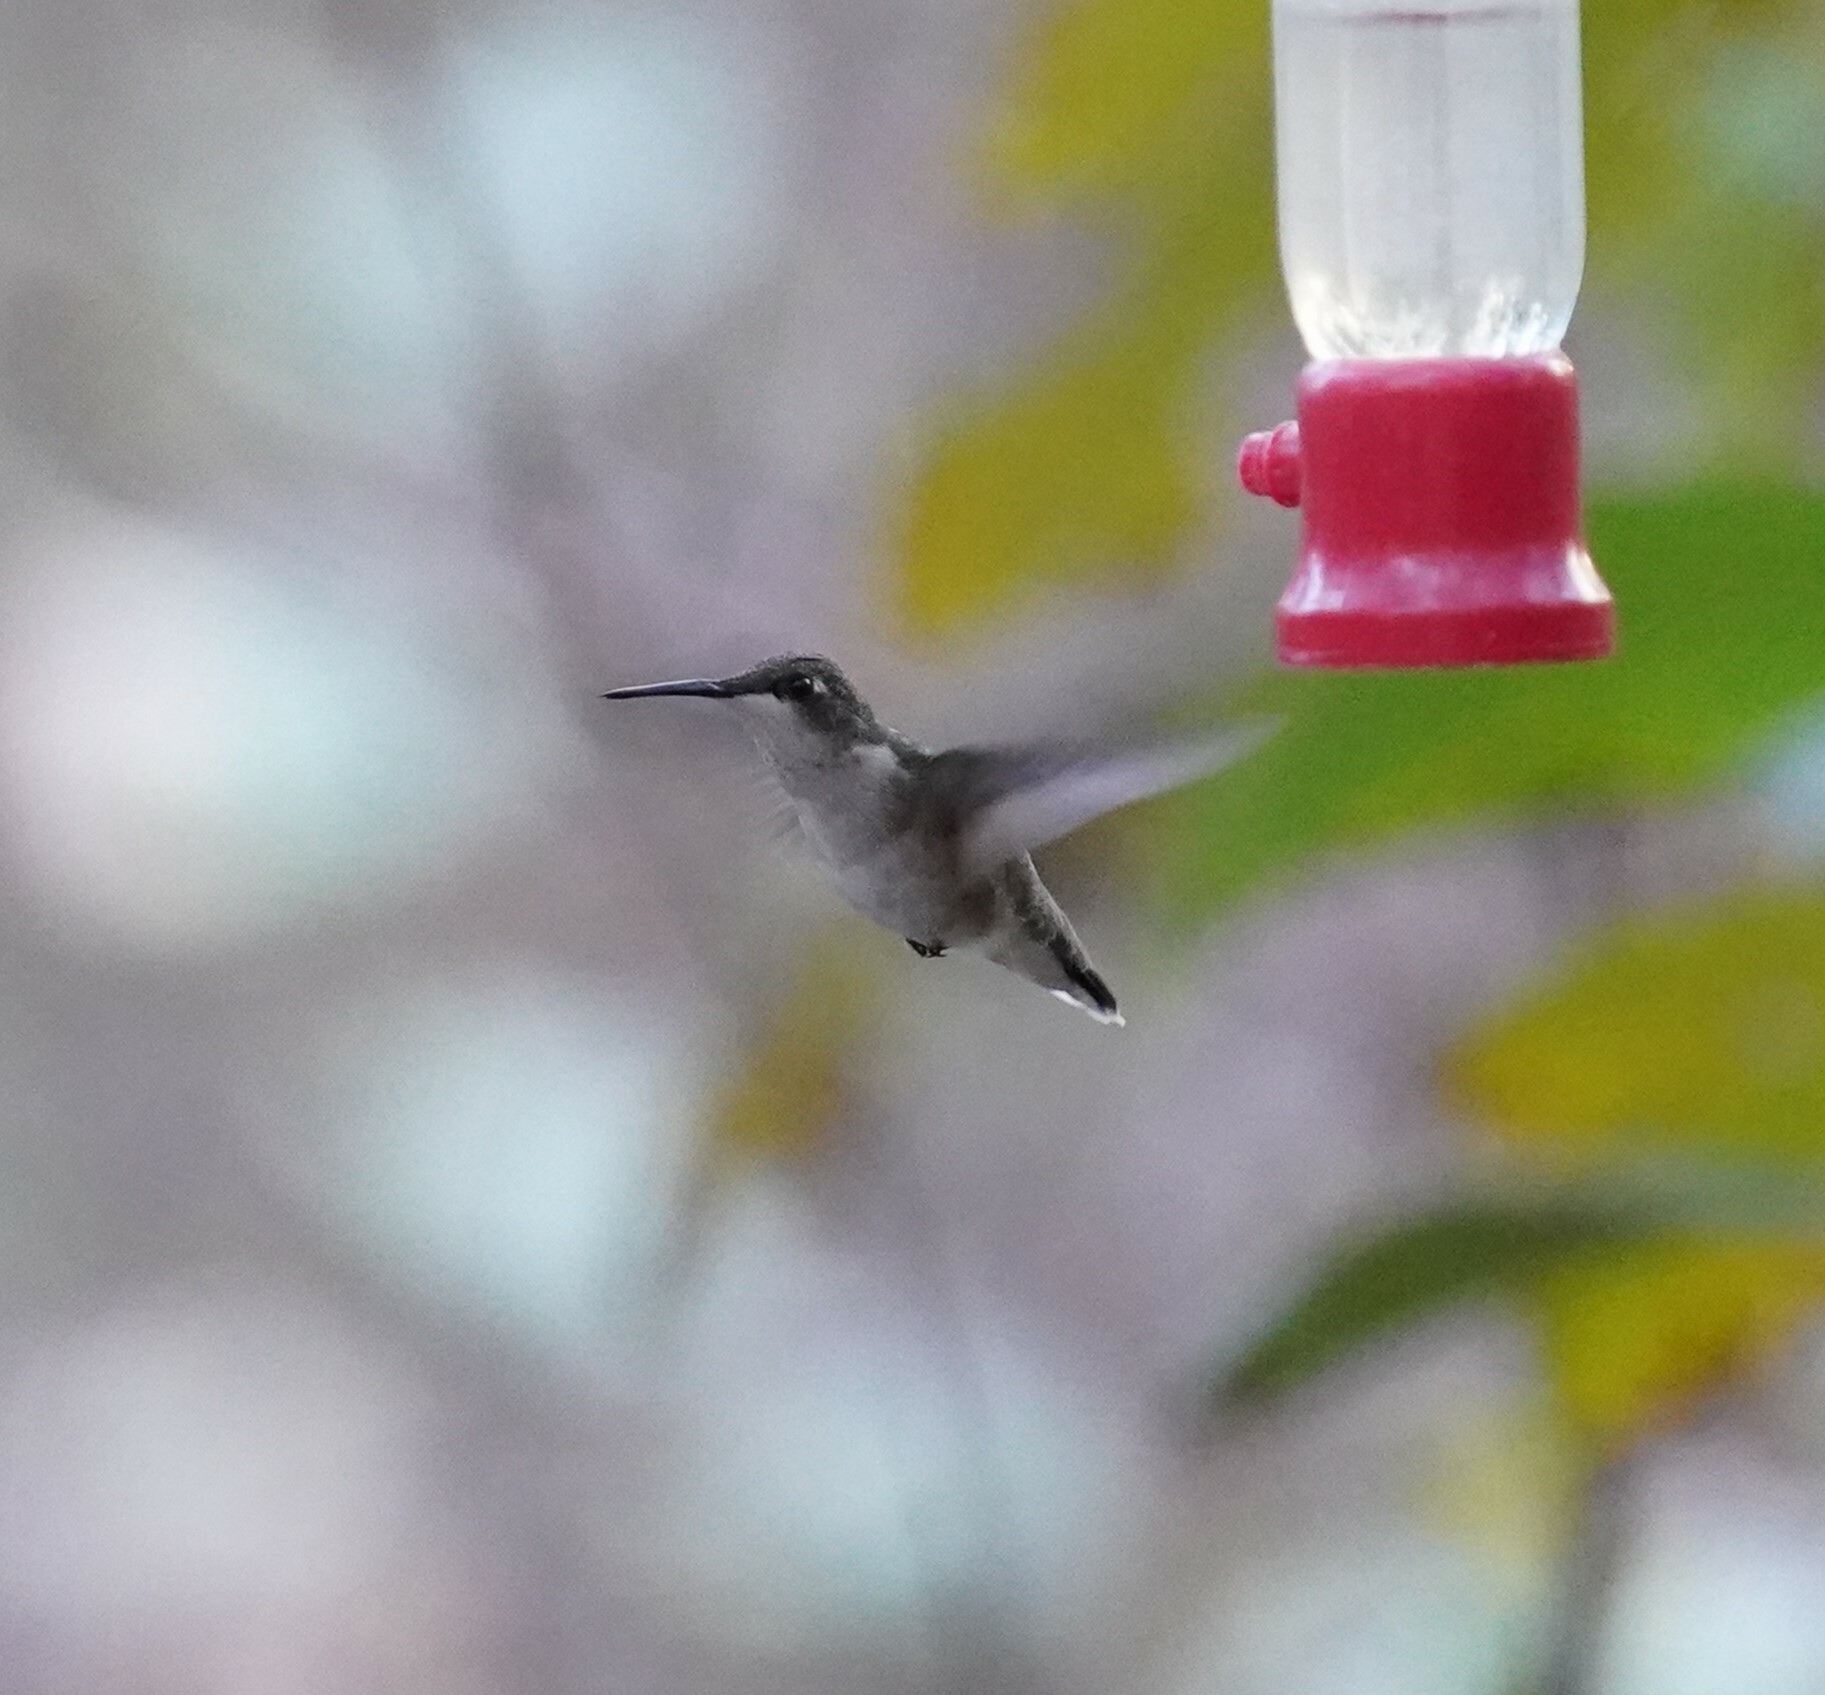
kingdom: Animalia
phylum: Chordata
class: Aves
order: Apodiformes
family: Trochilidae
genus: Archilochus
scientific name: Archilochus colubris
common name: Ruby-throated hummingbird
